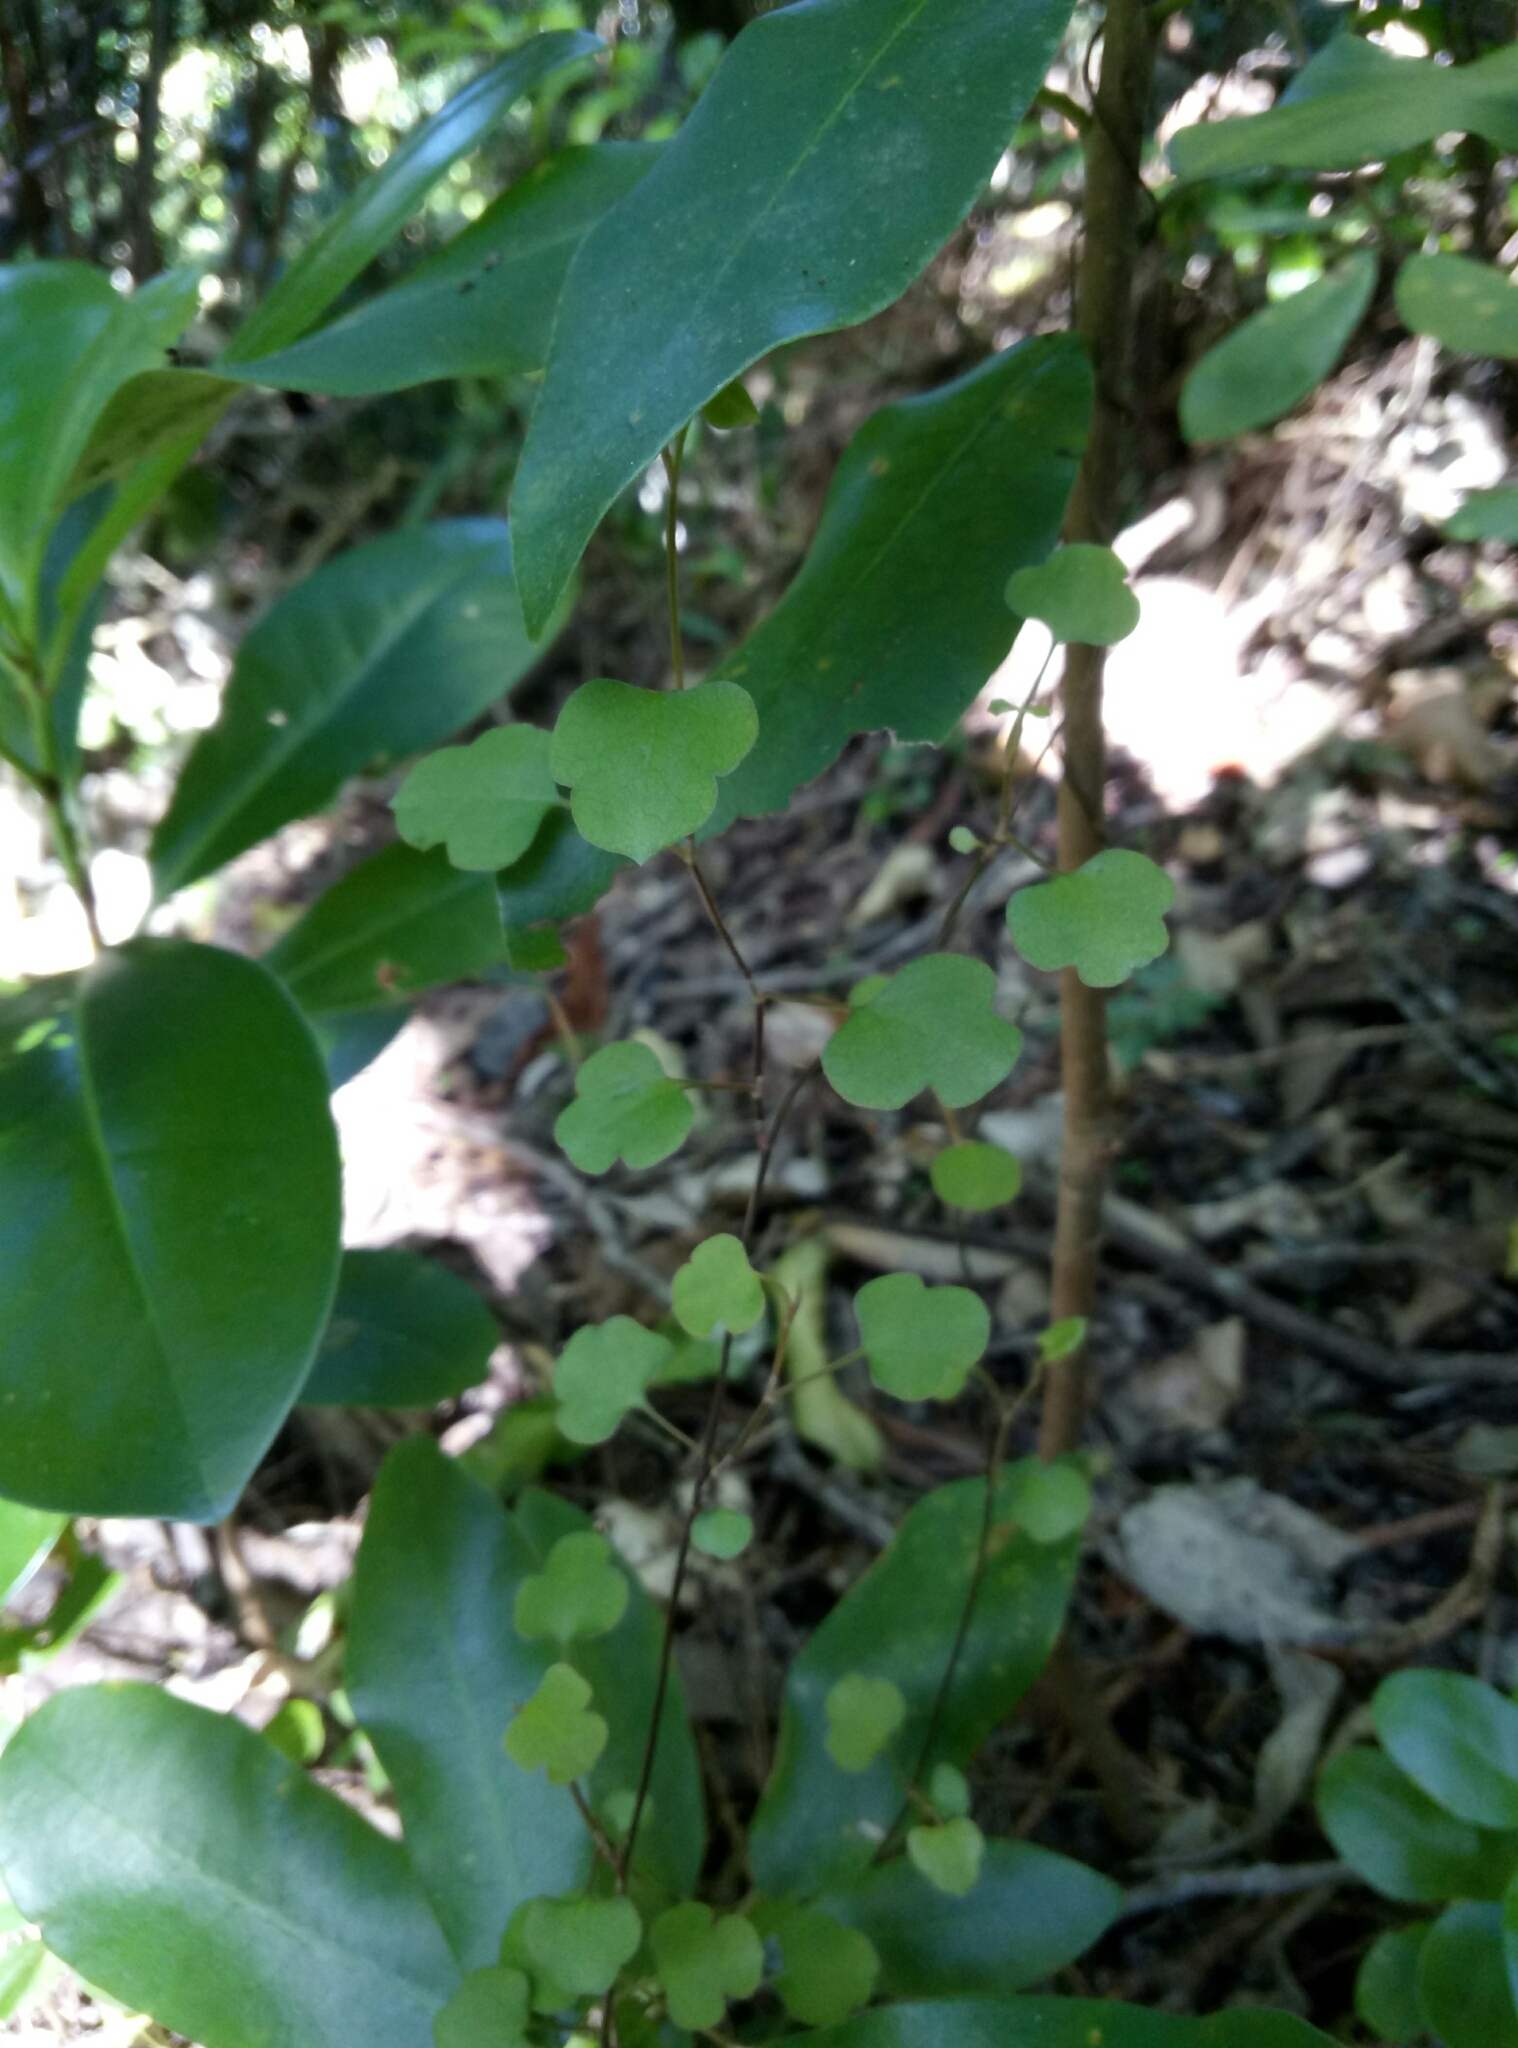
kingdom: Plantae
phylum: Tracheophyta
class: Magnoliopsida
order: Caryophyllales
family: Polygonaceae
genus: Muehlenbeckia
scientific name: Muehlenbeckia australis
